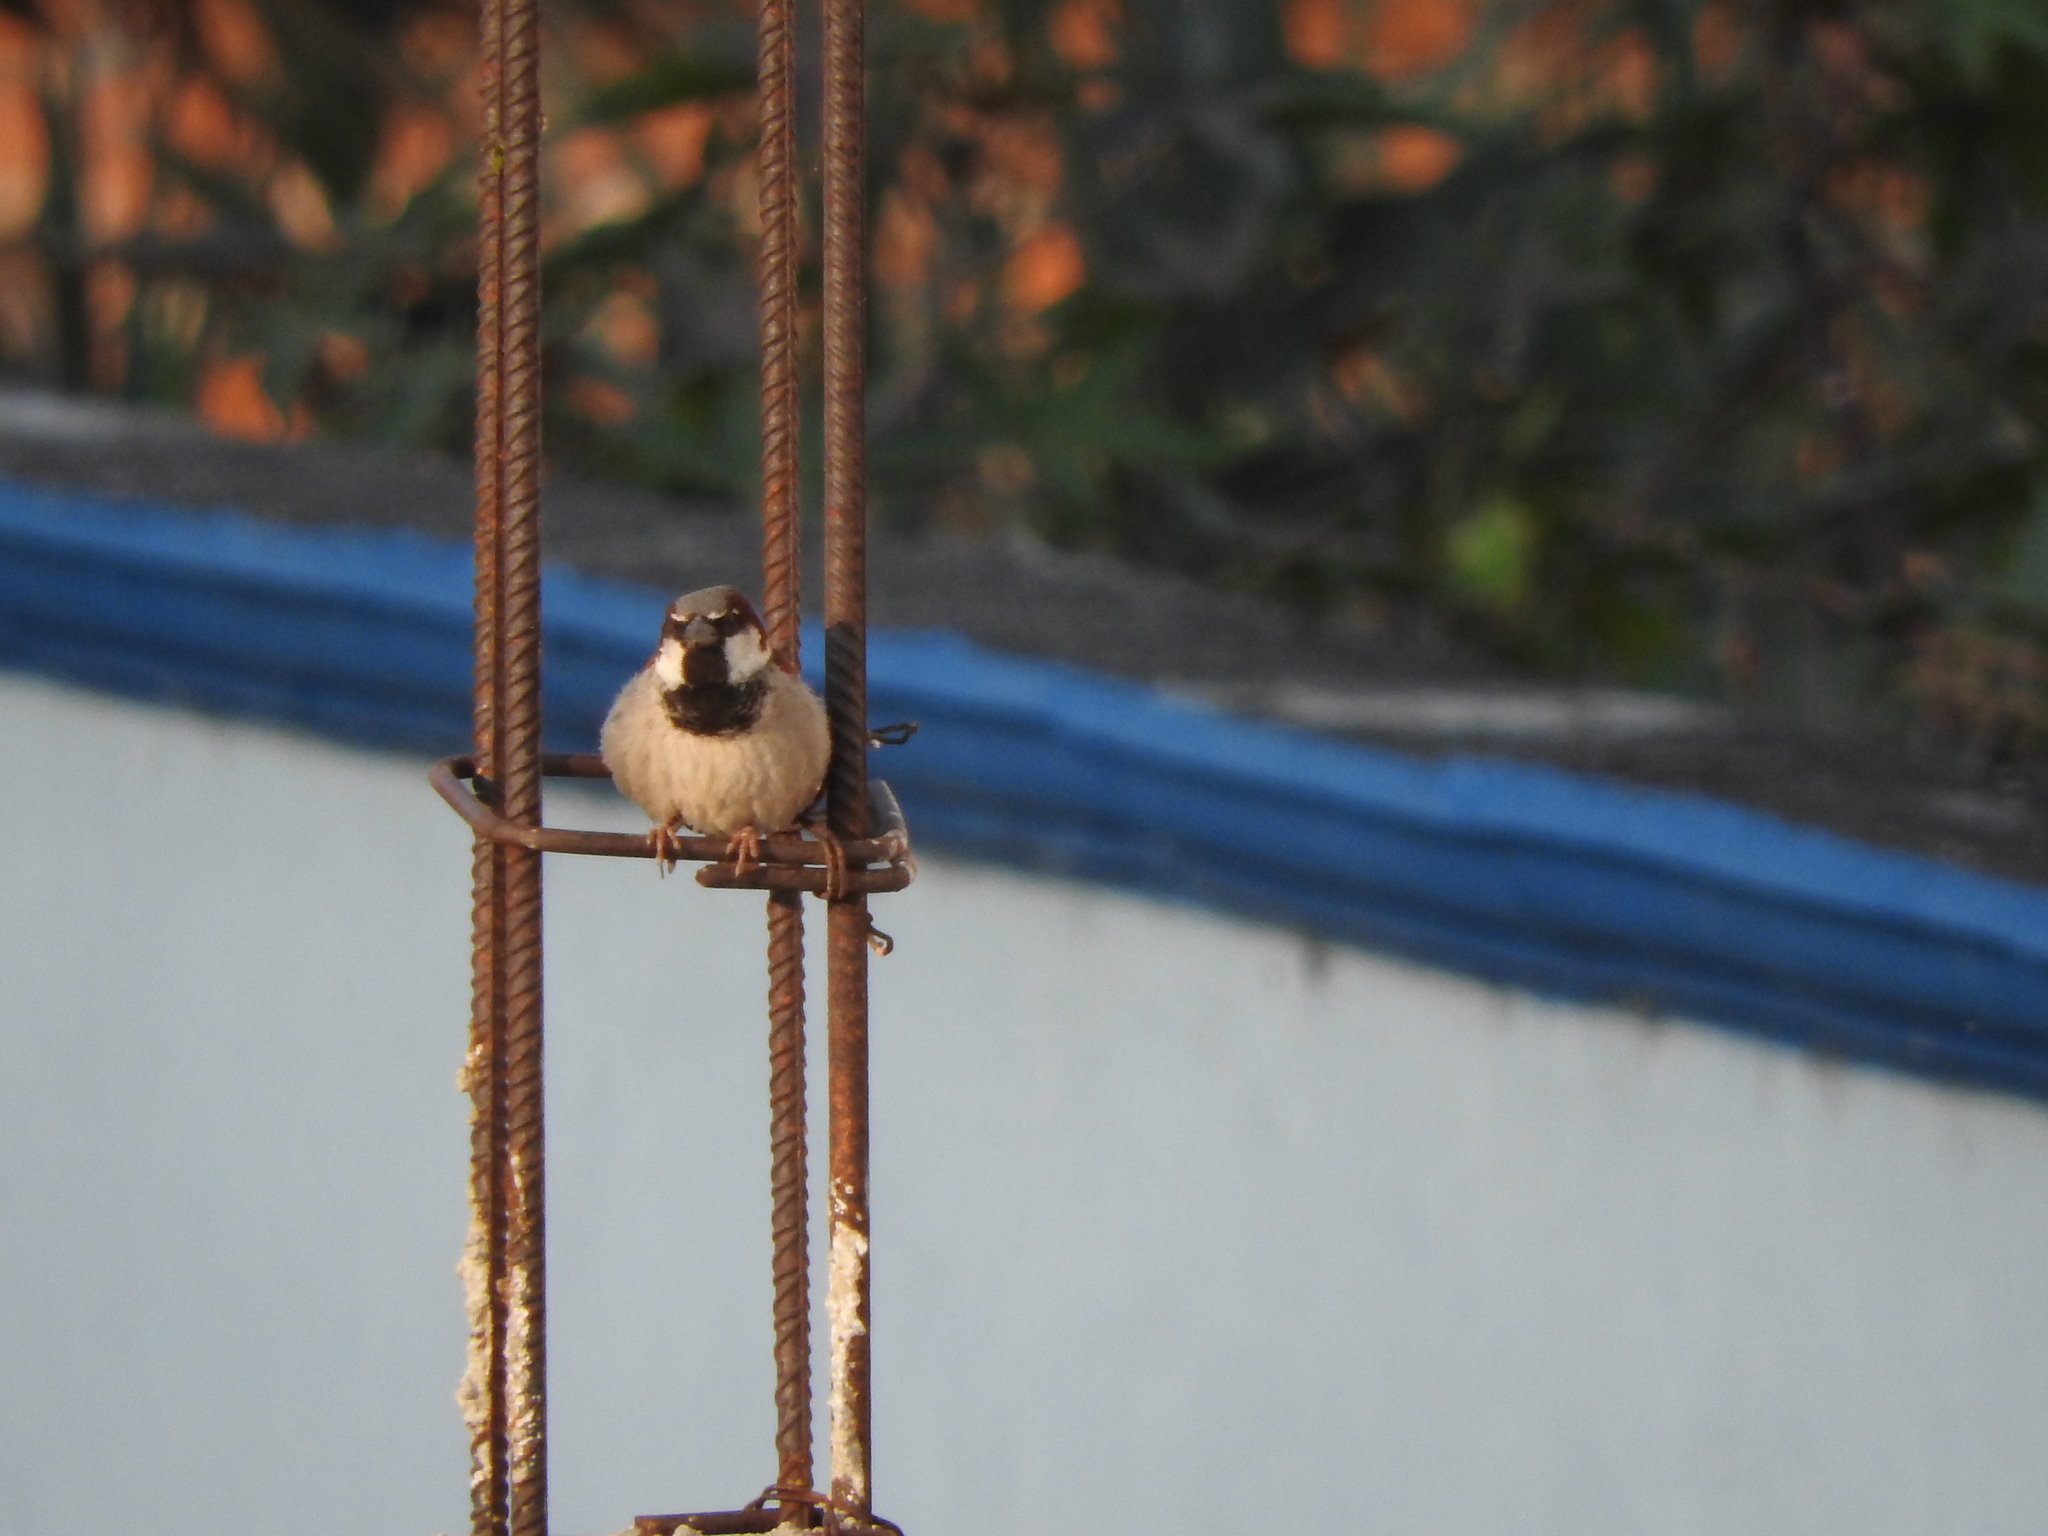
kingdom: Animalia
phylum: Chordata
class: Aves
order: Passeriformes
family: Passeridae
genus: Passer
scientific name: Passer domesticus
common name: House sparrow
